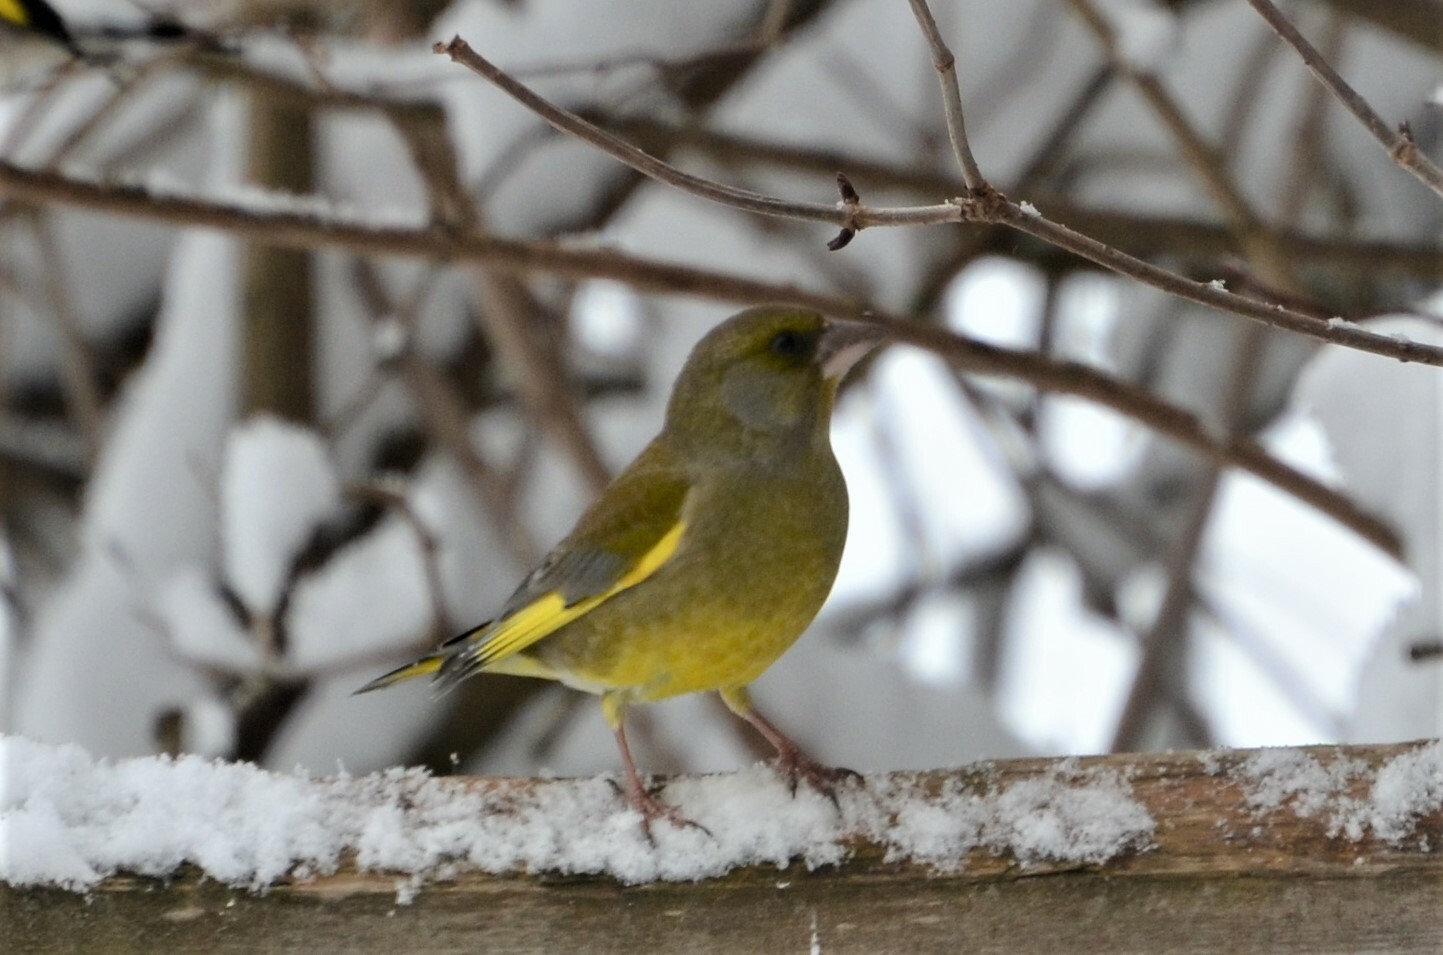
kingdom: Plantae
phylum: Tracheophyta
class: Liliopsida
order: Poales
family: Poaceae
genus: Chloris
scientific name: Chloris chloris
